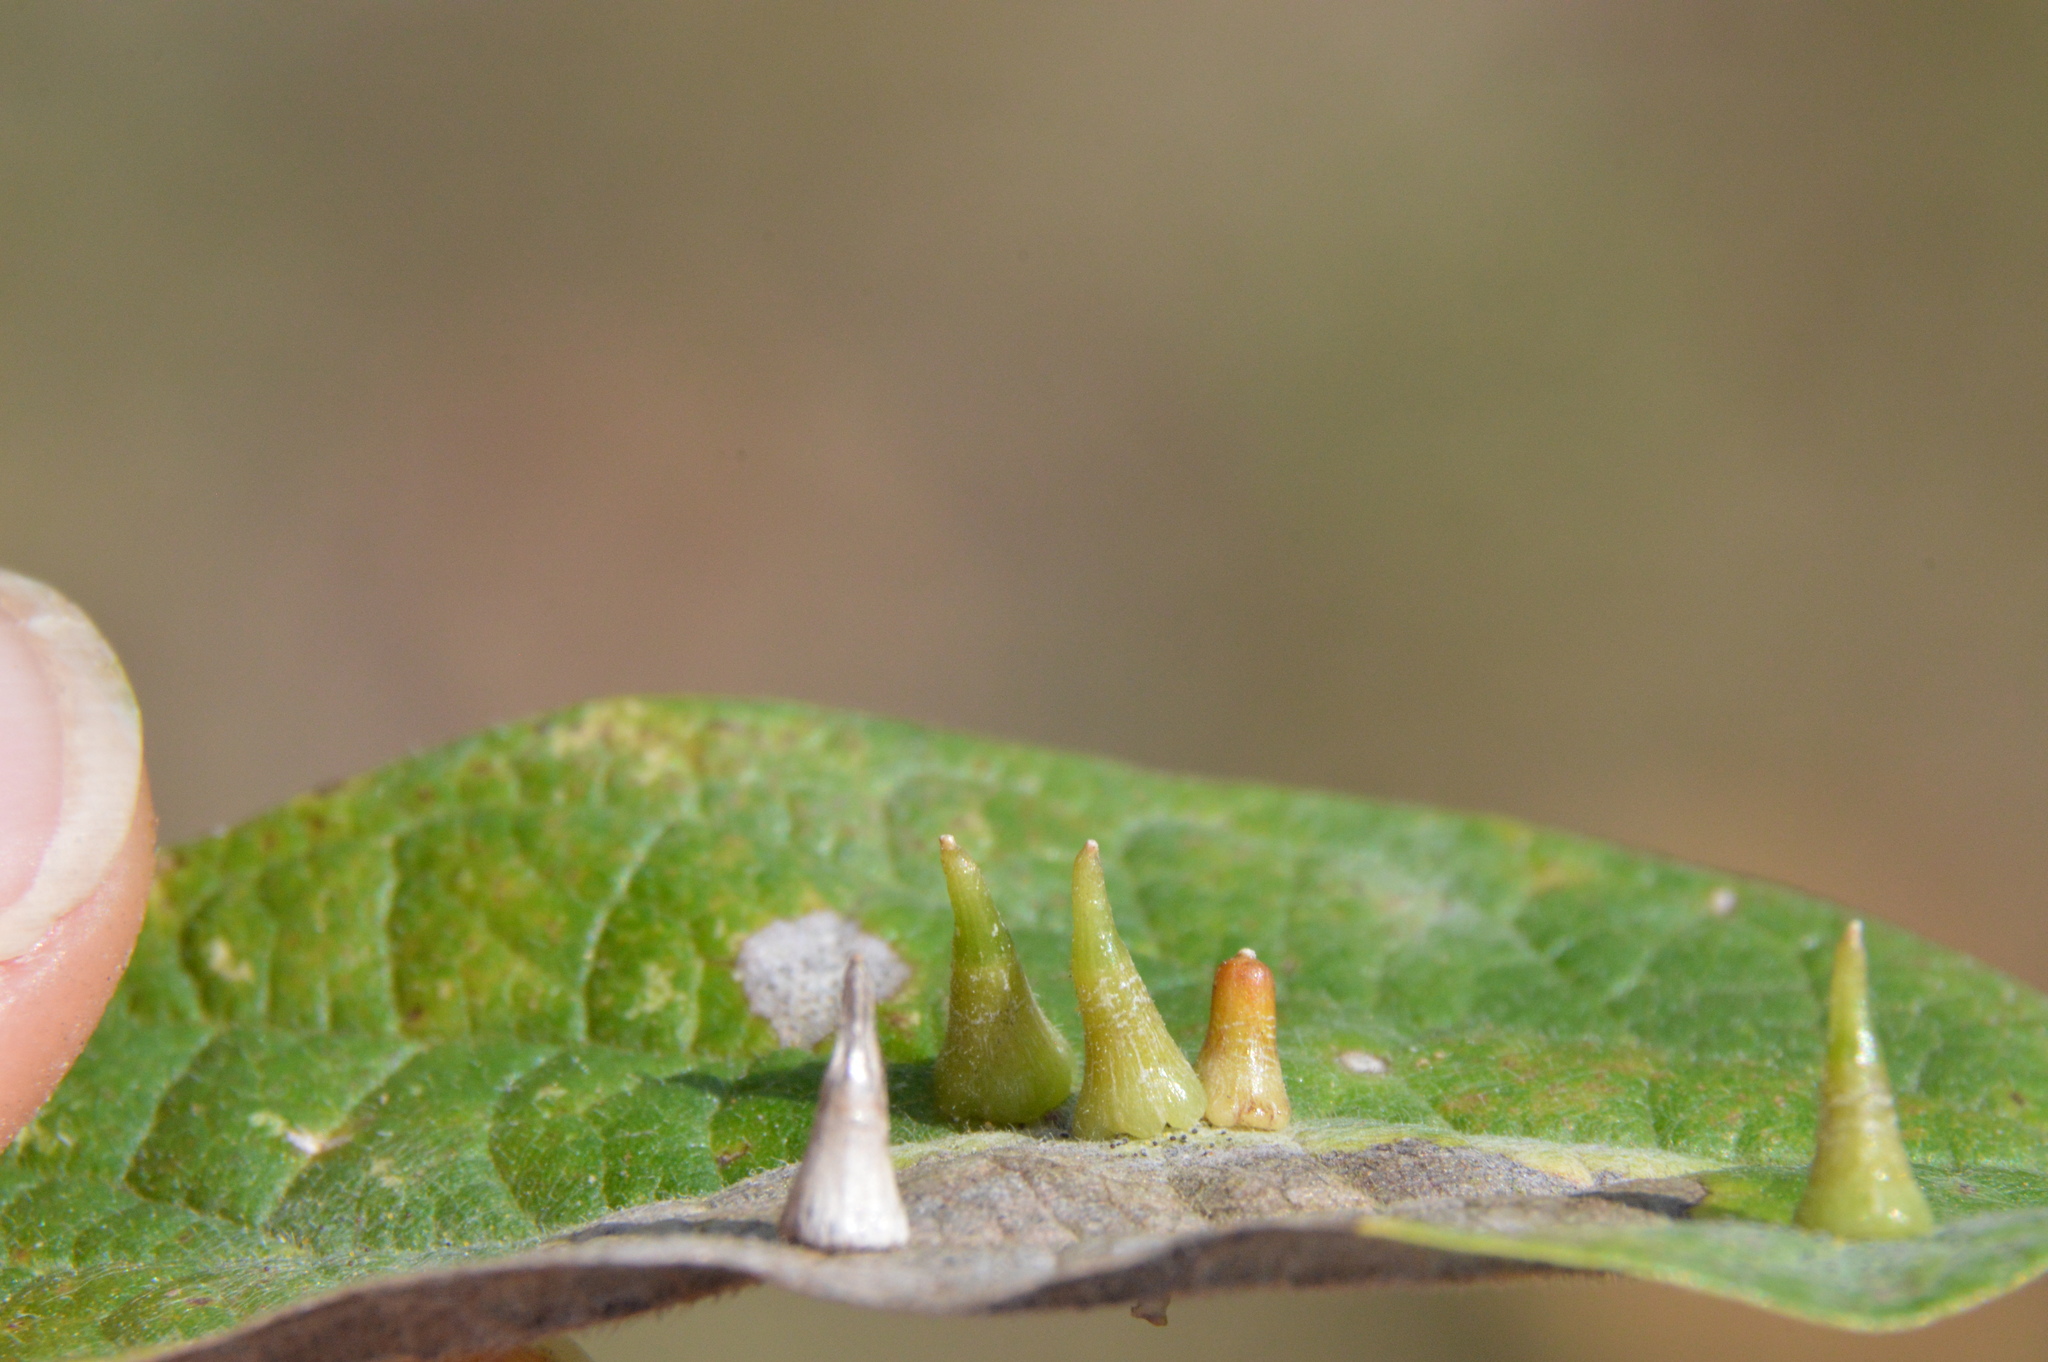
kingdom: Animalia
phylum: Arthropoda
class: Insecta
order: Diptera
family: Cecidomyiidae
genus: Celticecis
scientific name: Celticecis subulata
